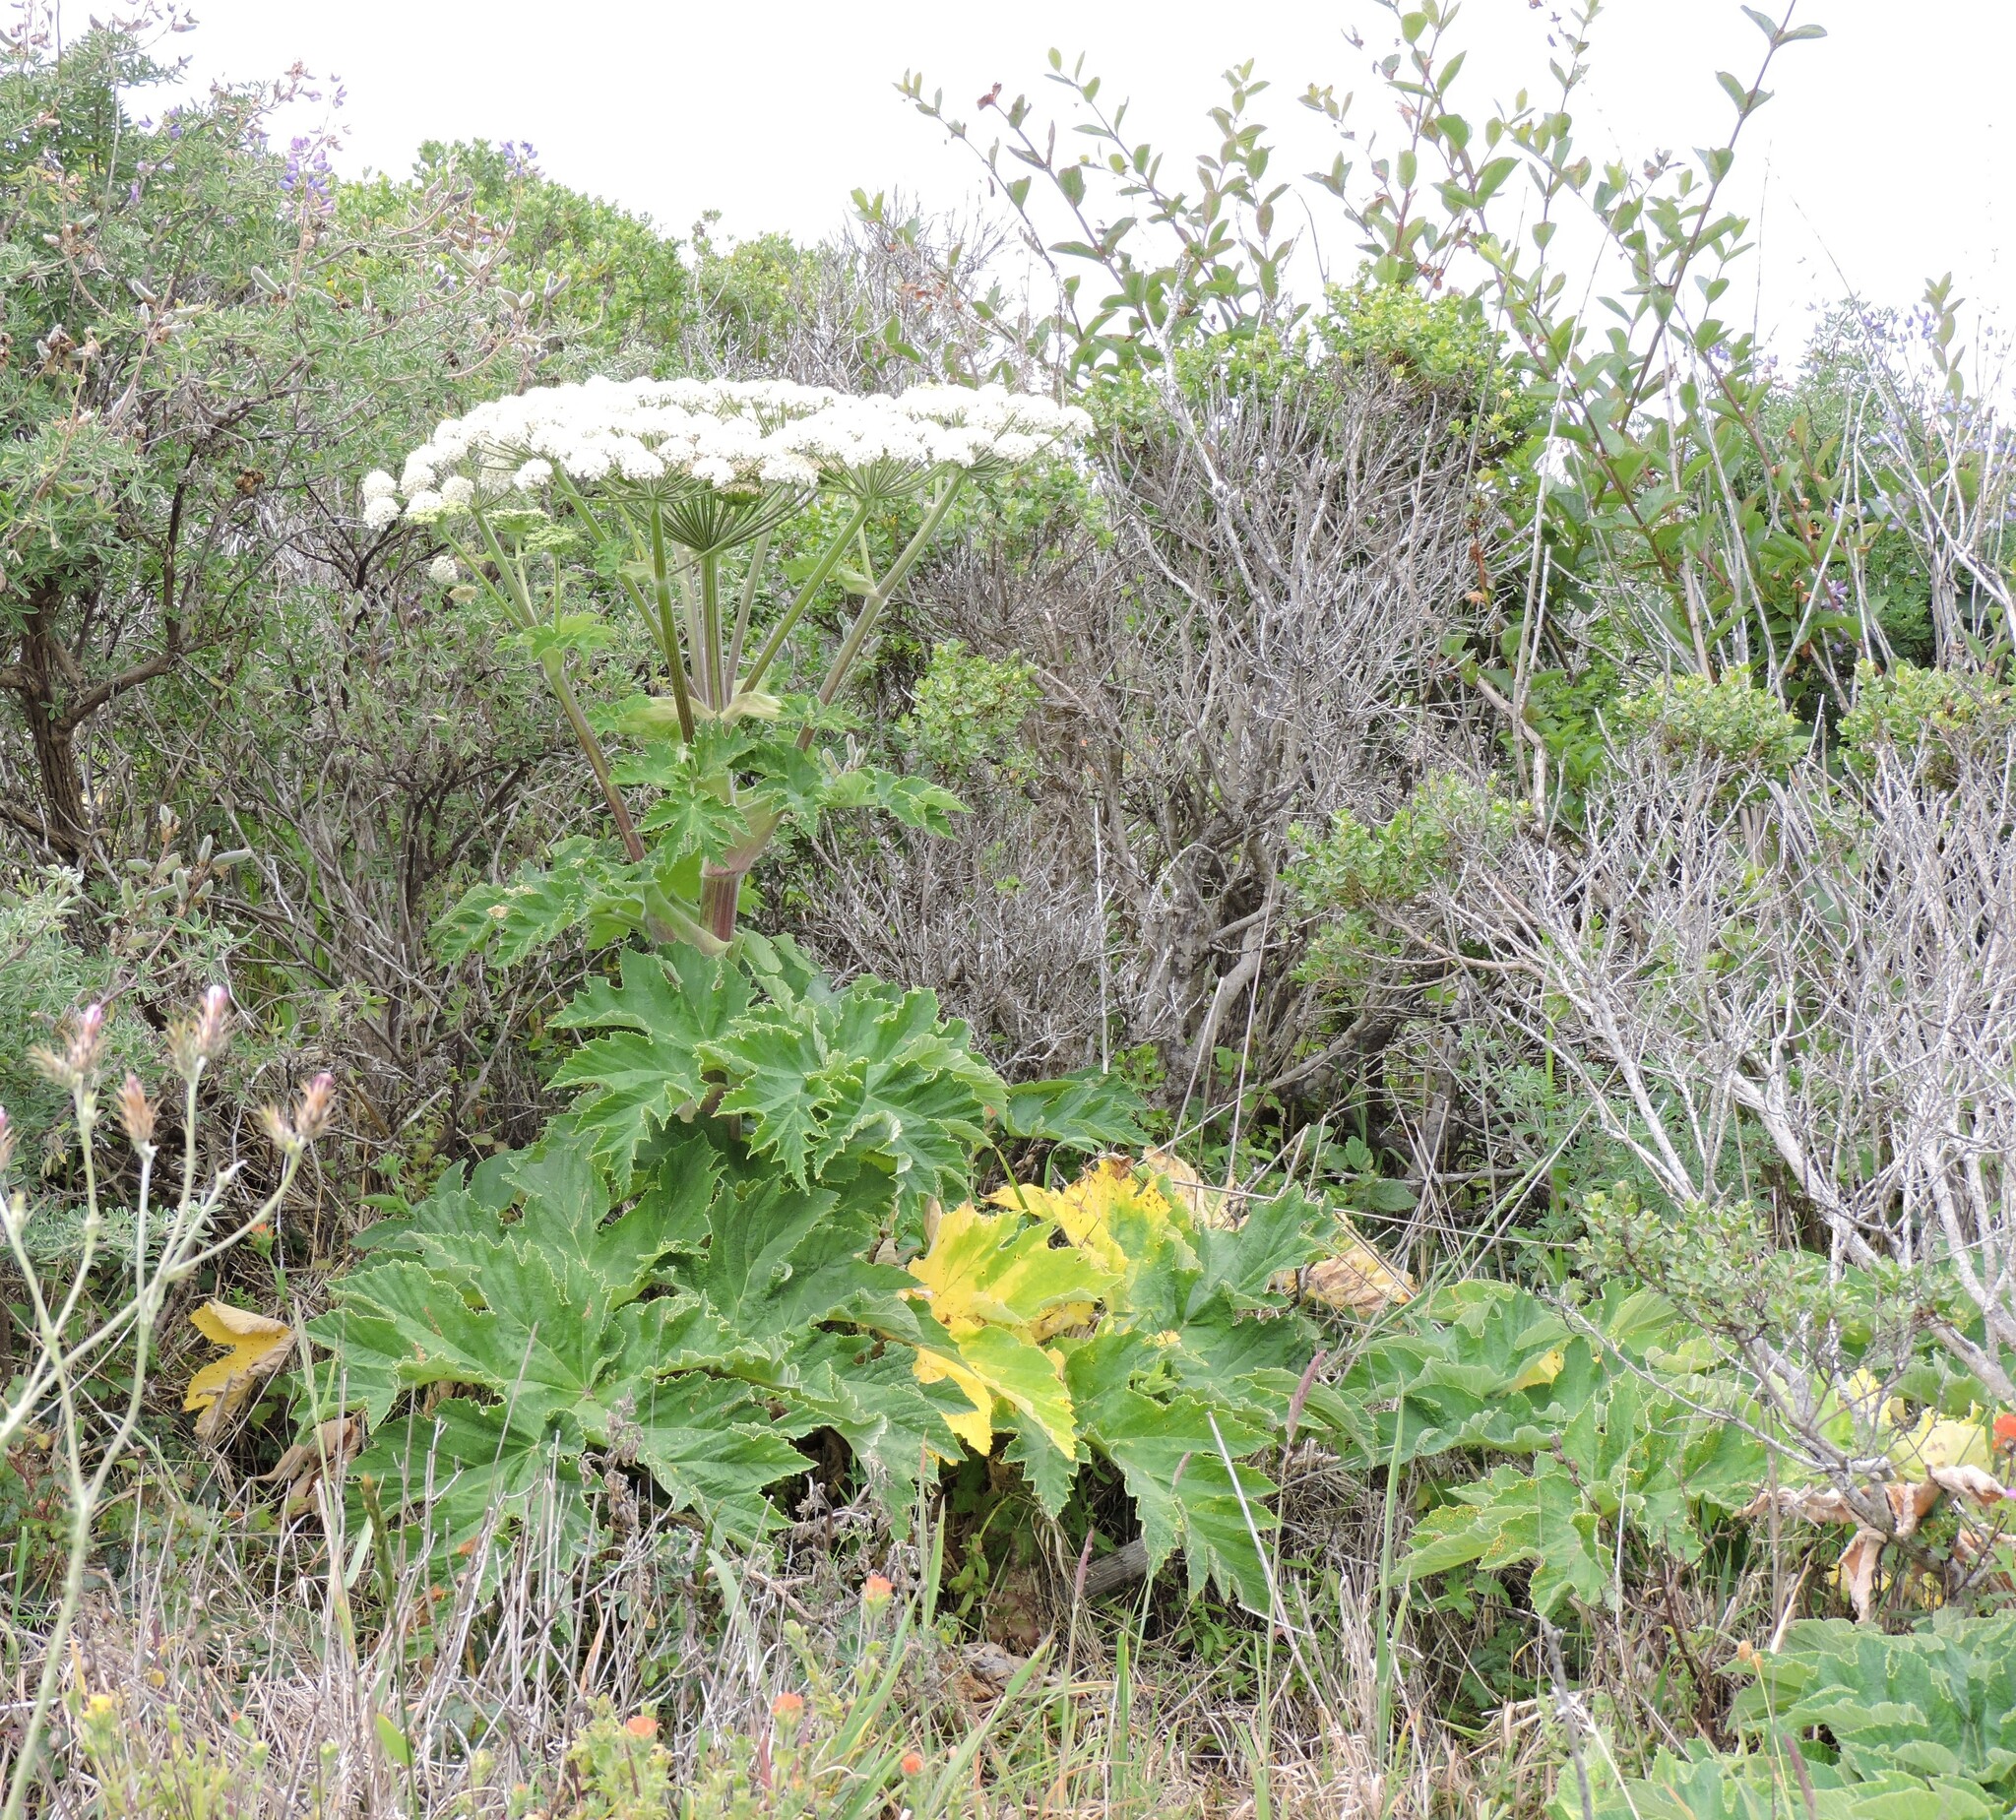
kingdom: Plantae
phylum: Tracheophyta
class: Magnoliopsida
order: Apiales
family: Apiaceae
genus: Heracleum
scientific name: Heracleum maximum
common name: American cow parsnip
